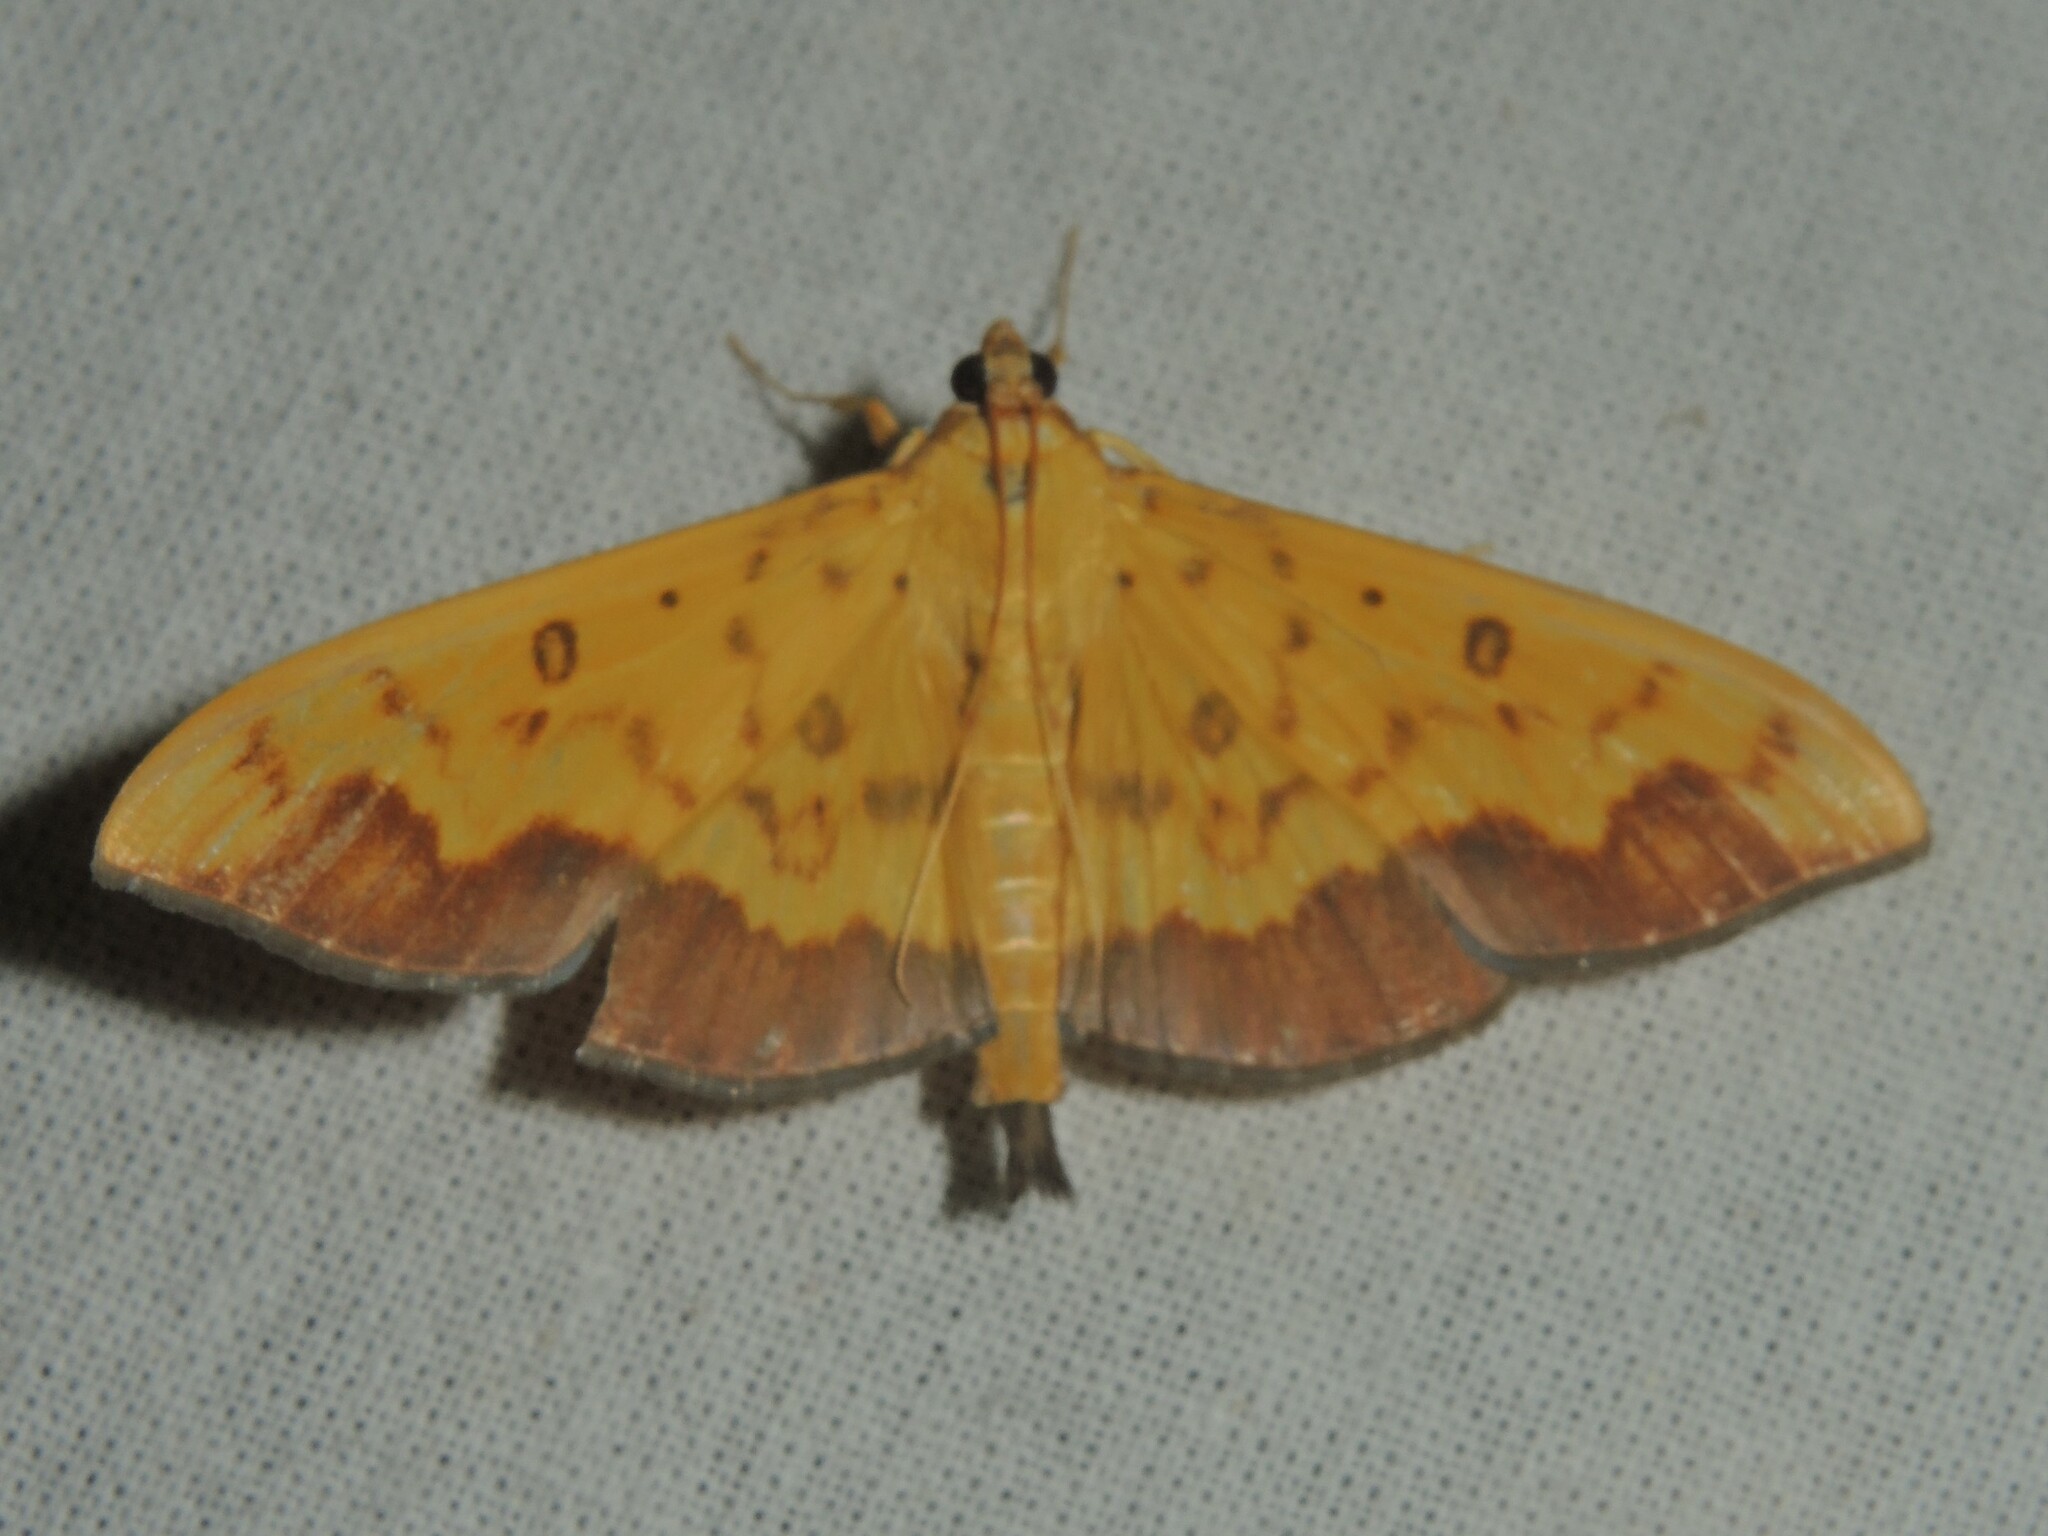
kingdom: Animalia
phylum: Arthropoda
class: Insecta
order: Lepidoptera
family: Crambidae
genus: Botyodes
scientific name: Botyodes asialis
